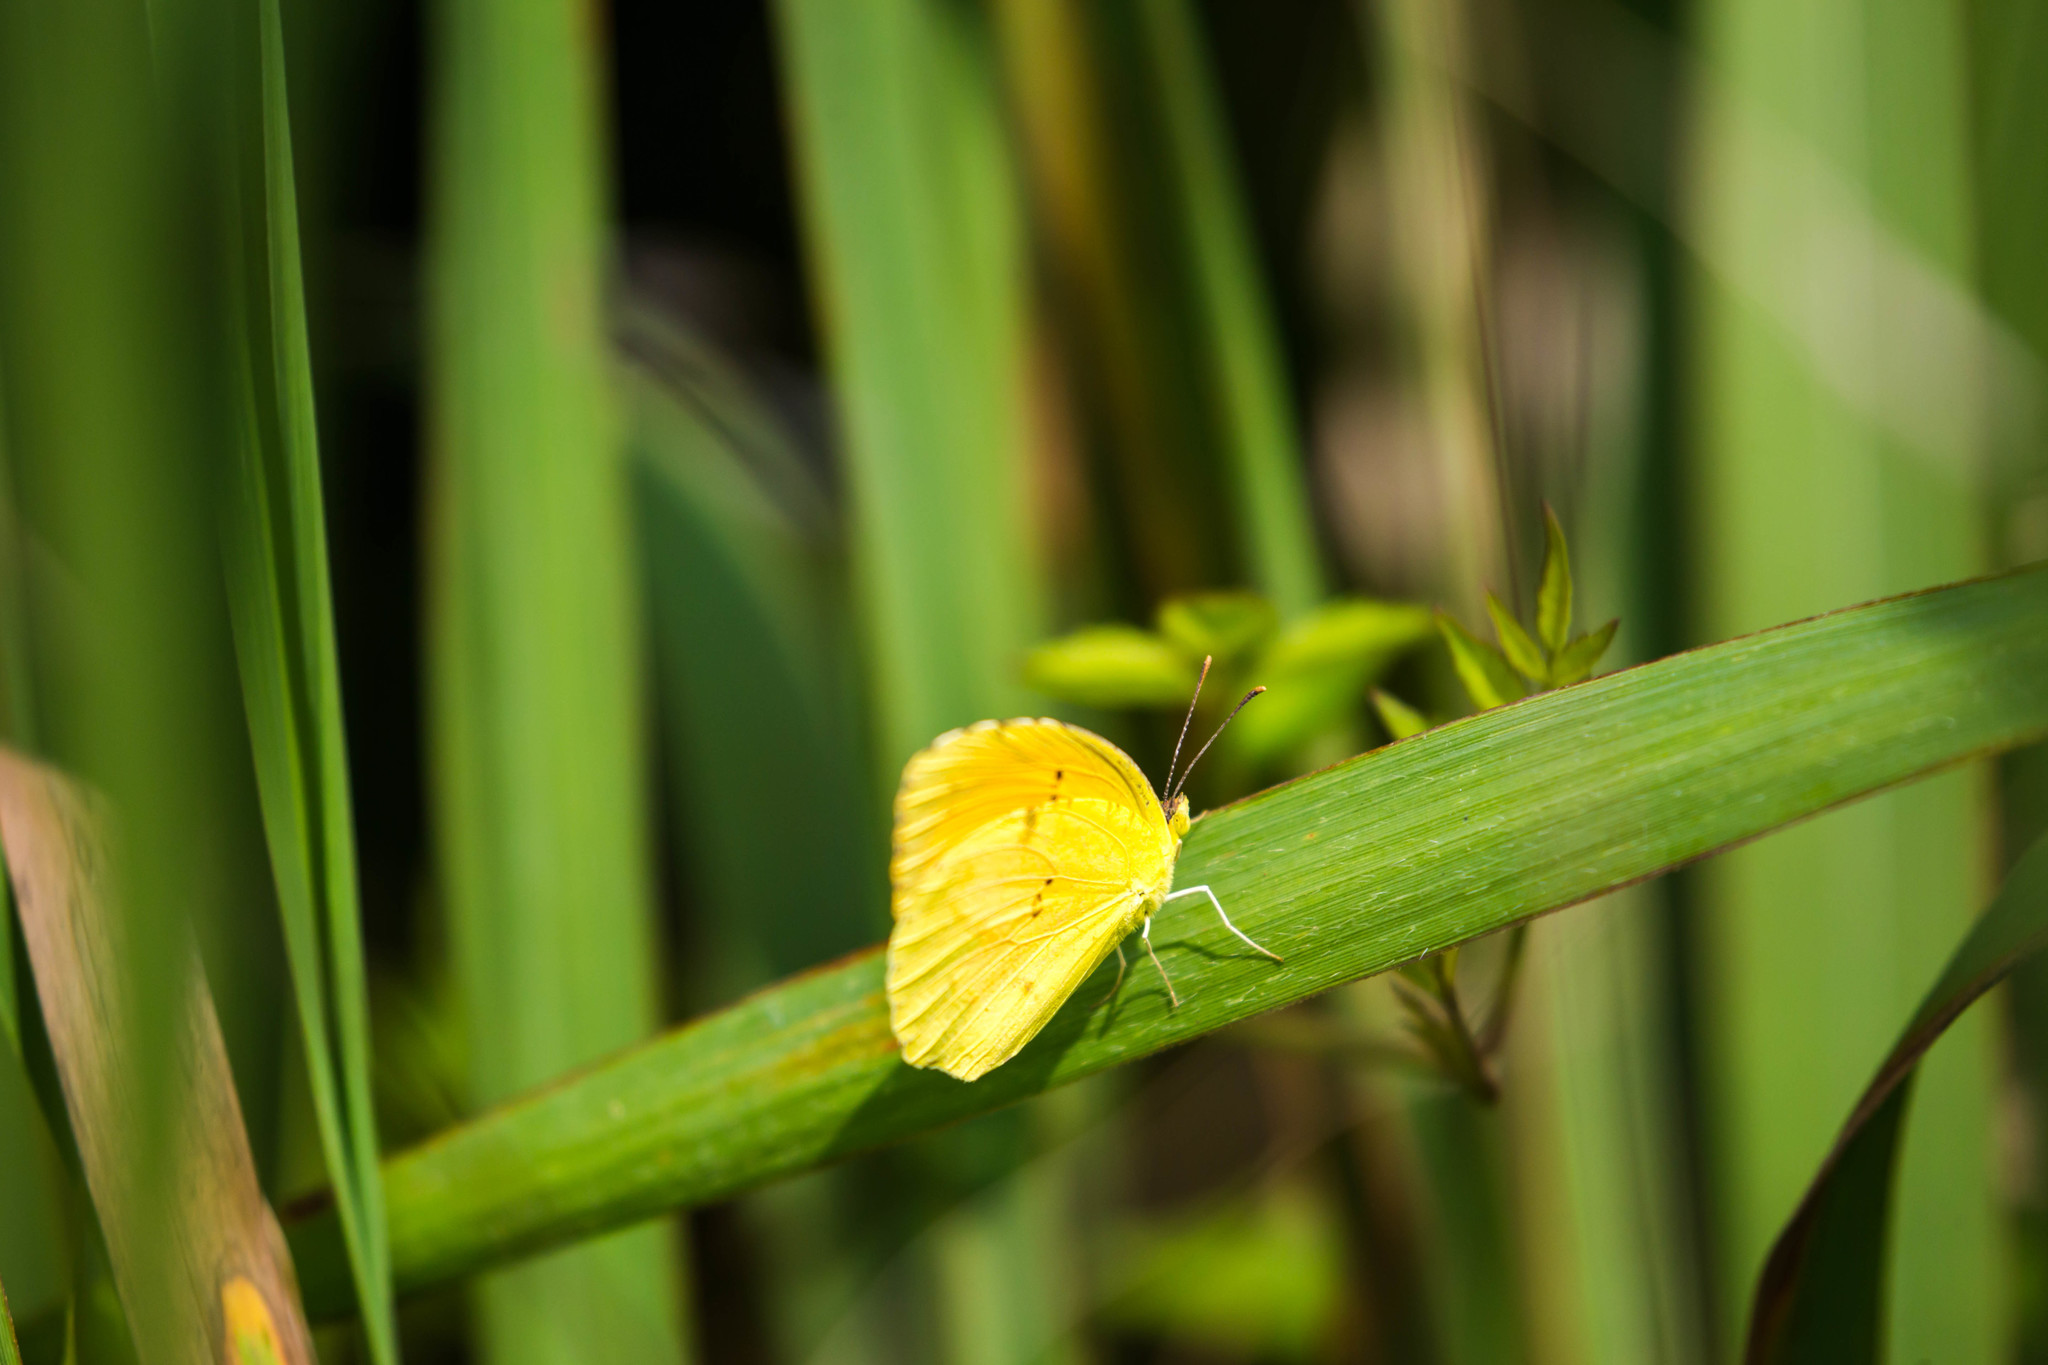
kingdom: Animalia
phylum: Arthropoda
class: Insecta
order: Lepidoptera
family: Pieridae
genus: Abaeis
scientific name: Abaeis nicippe
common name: Sleepy orange
